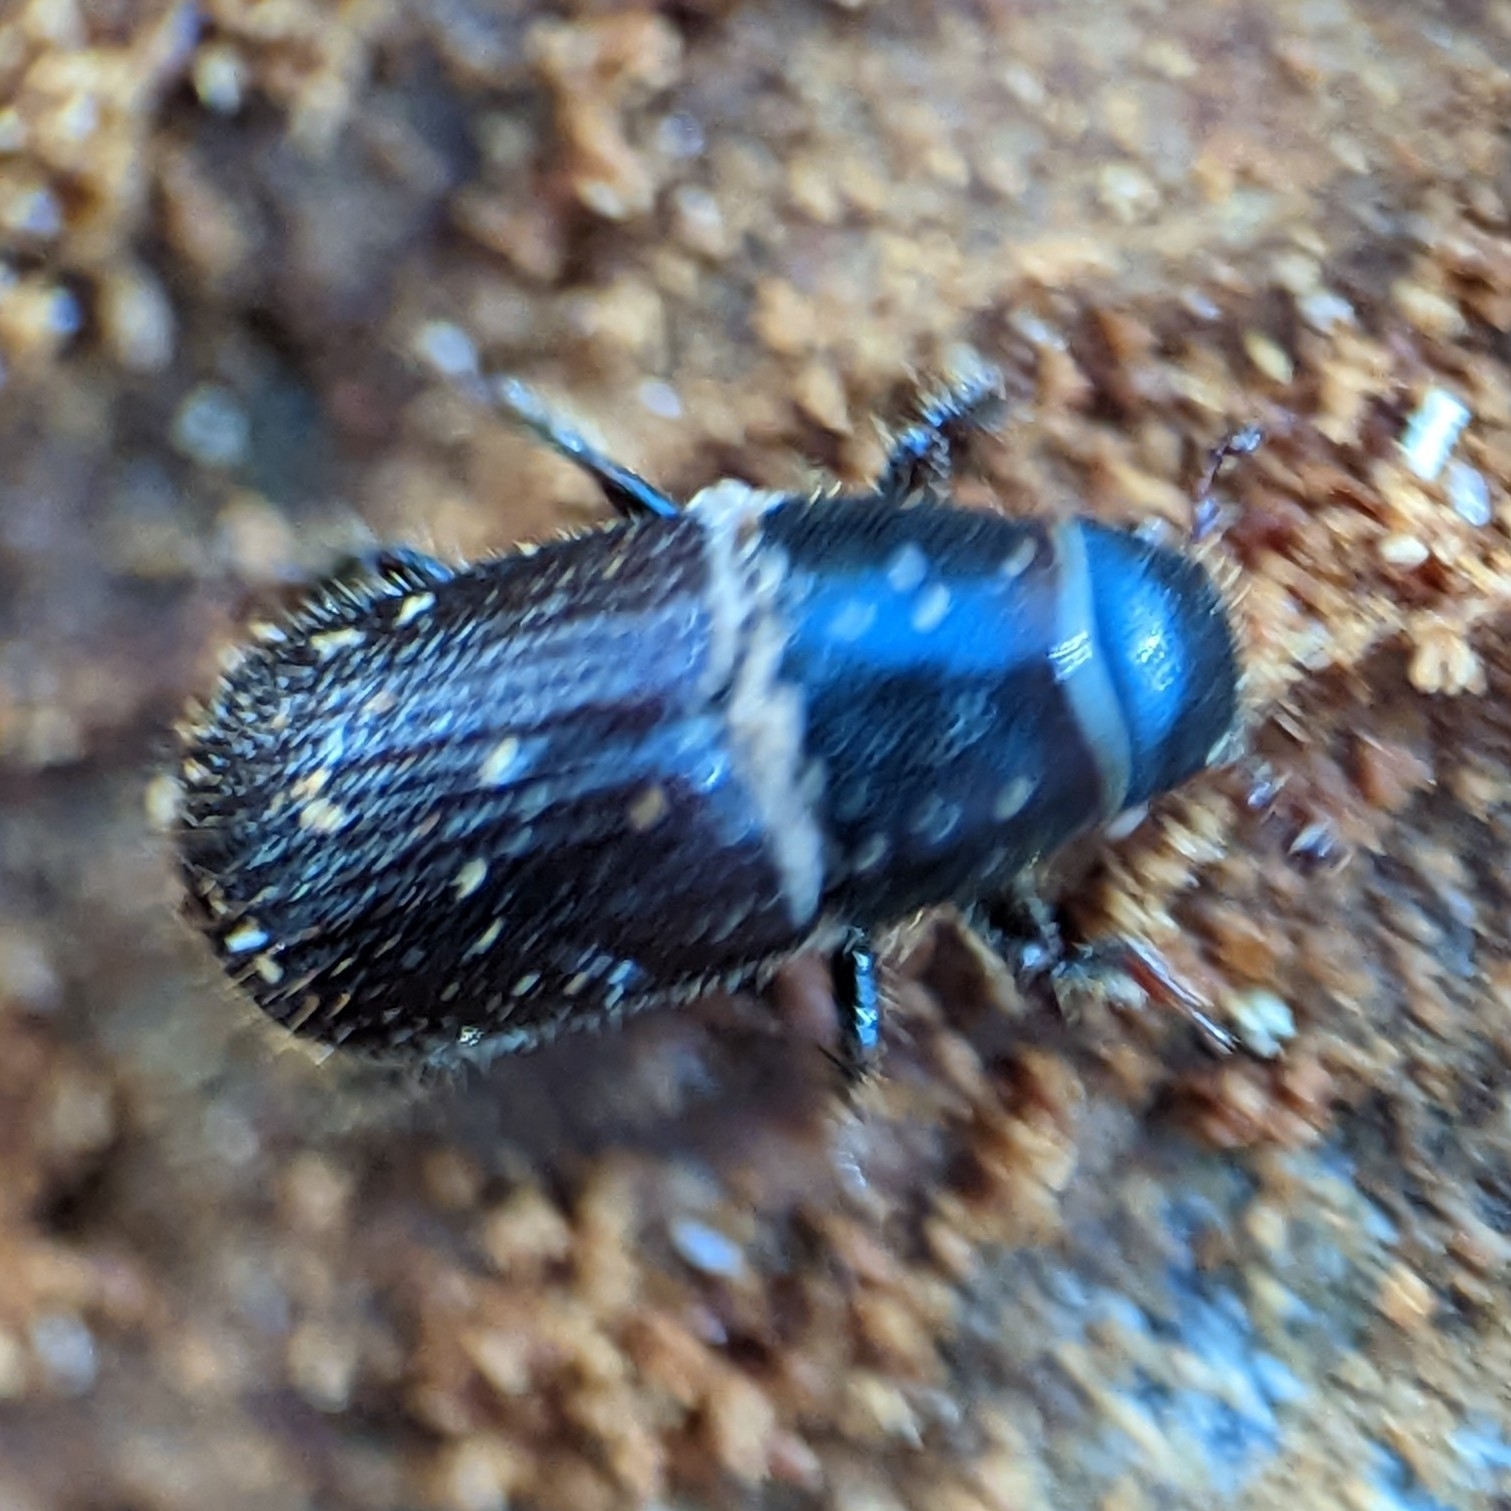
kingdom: Animalia
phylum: Arthropoda
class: Insecta
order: Coleoptera
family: Curculionidae
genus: Dendroctonus
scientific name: Dendroctonus terebrans
